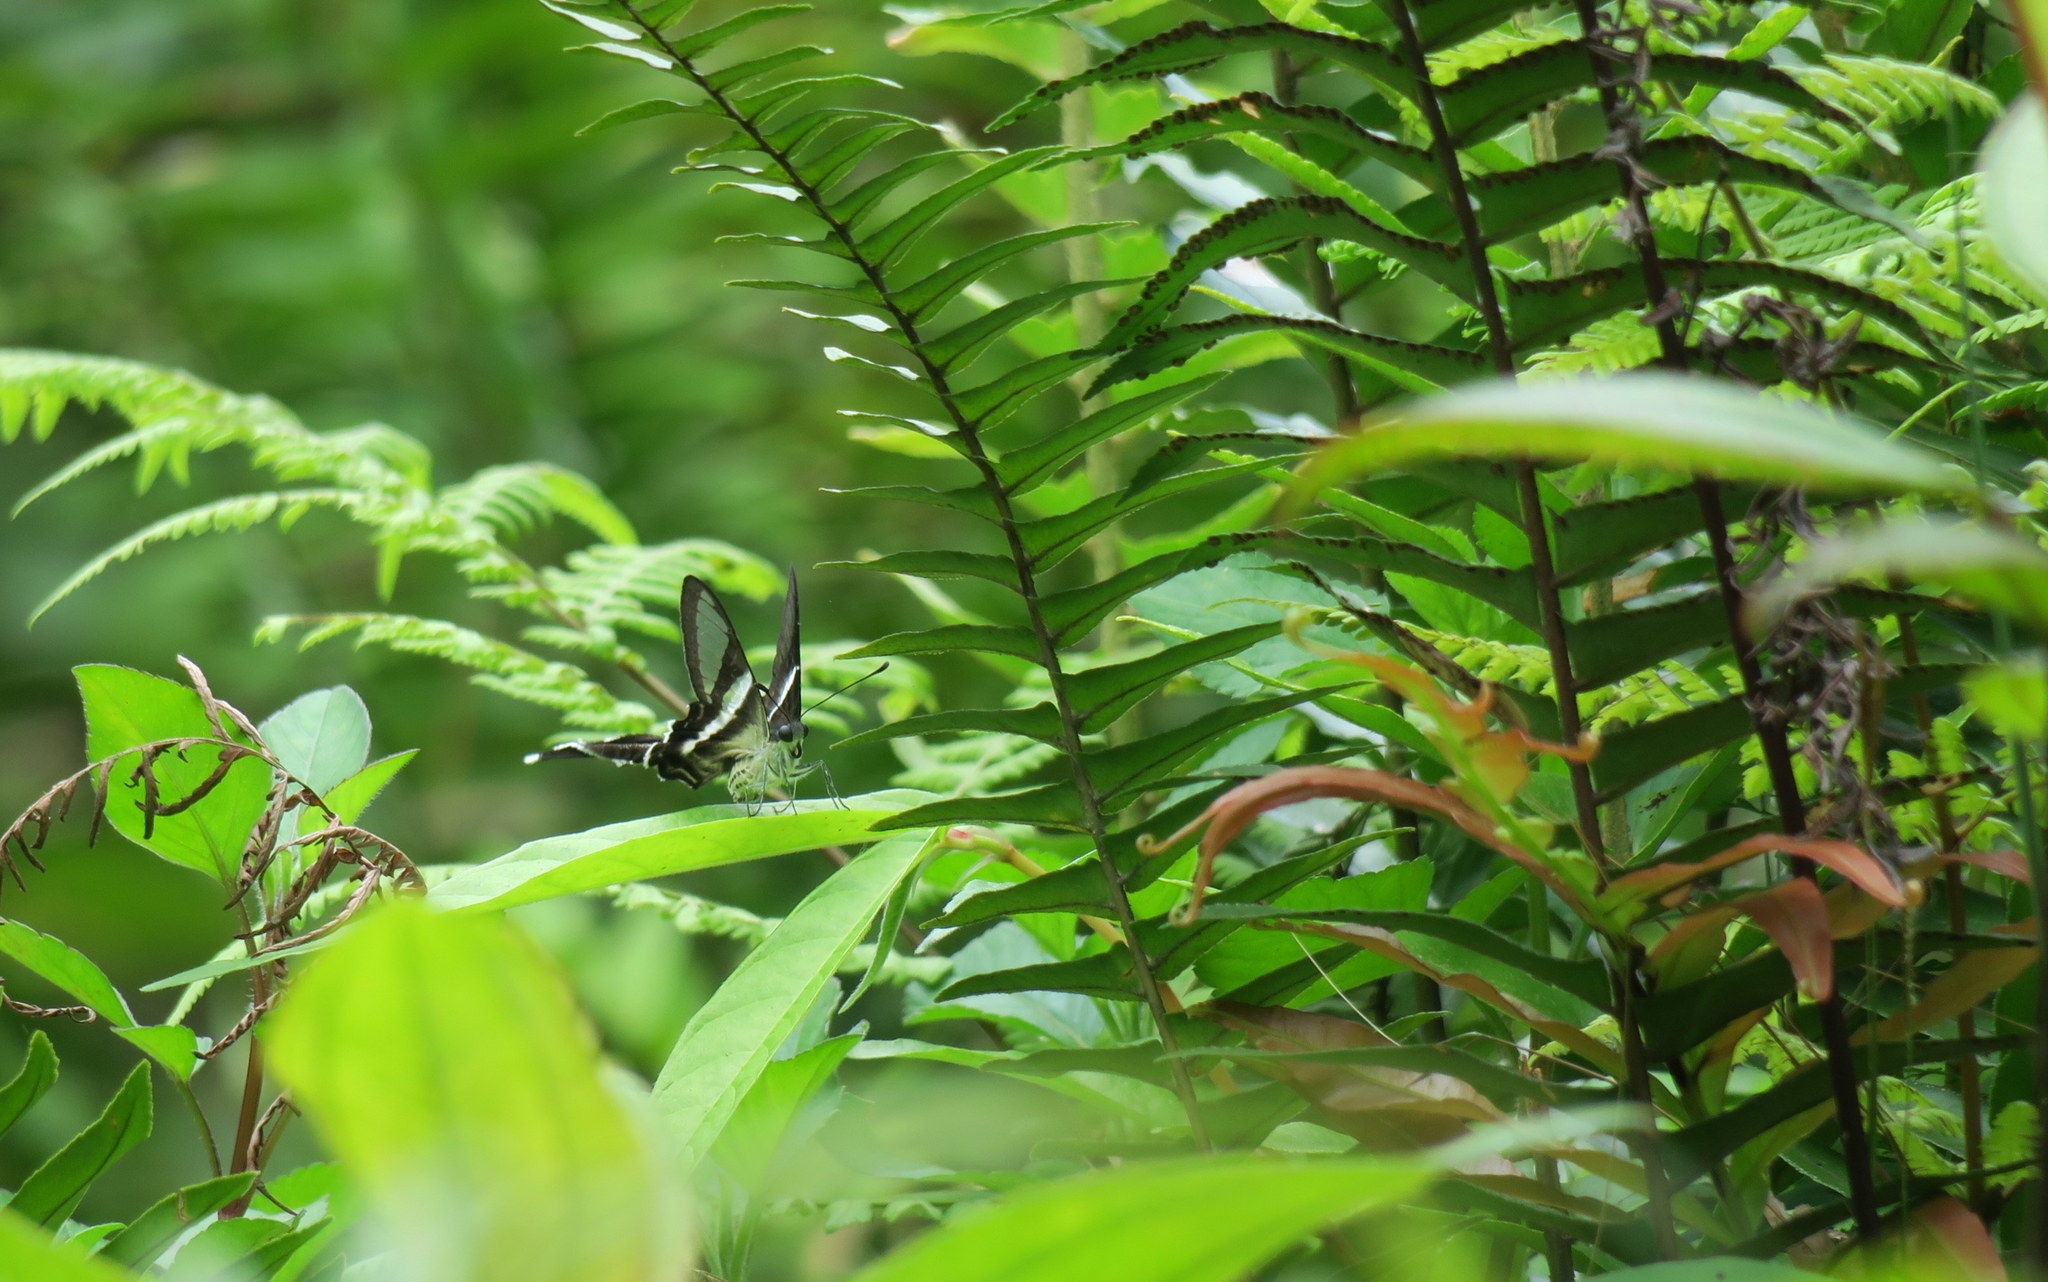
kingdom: Animalia
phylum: Arthropoda
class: Insecta
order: Lepidoptera
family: Papilionidae
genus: Lamproptera
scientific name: Lamproptera curius
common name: White dragontail
